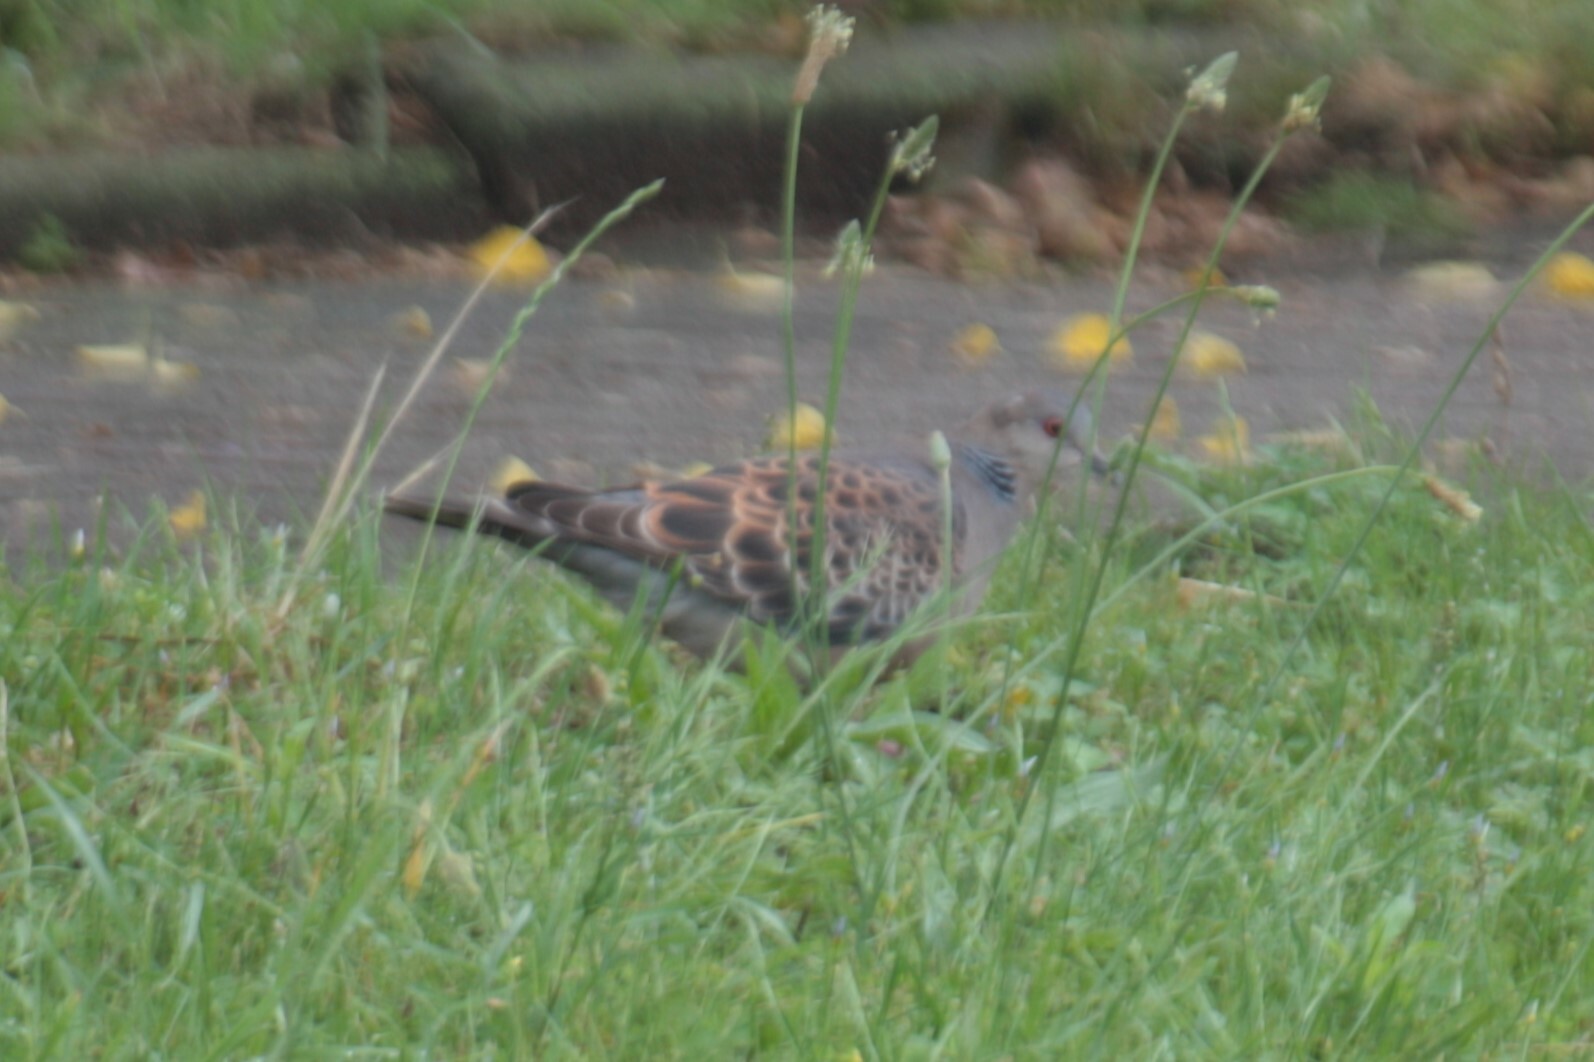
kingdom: Animalia
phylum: Chordata
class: Aves
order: Columbiformes
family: Columbidae
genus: Streptopelia
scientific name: Streptopelia orientalis
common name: Oriental turtle dove
